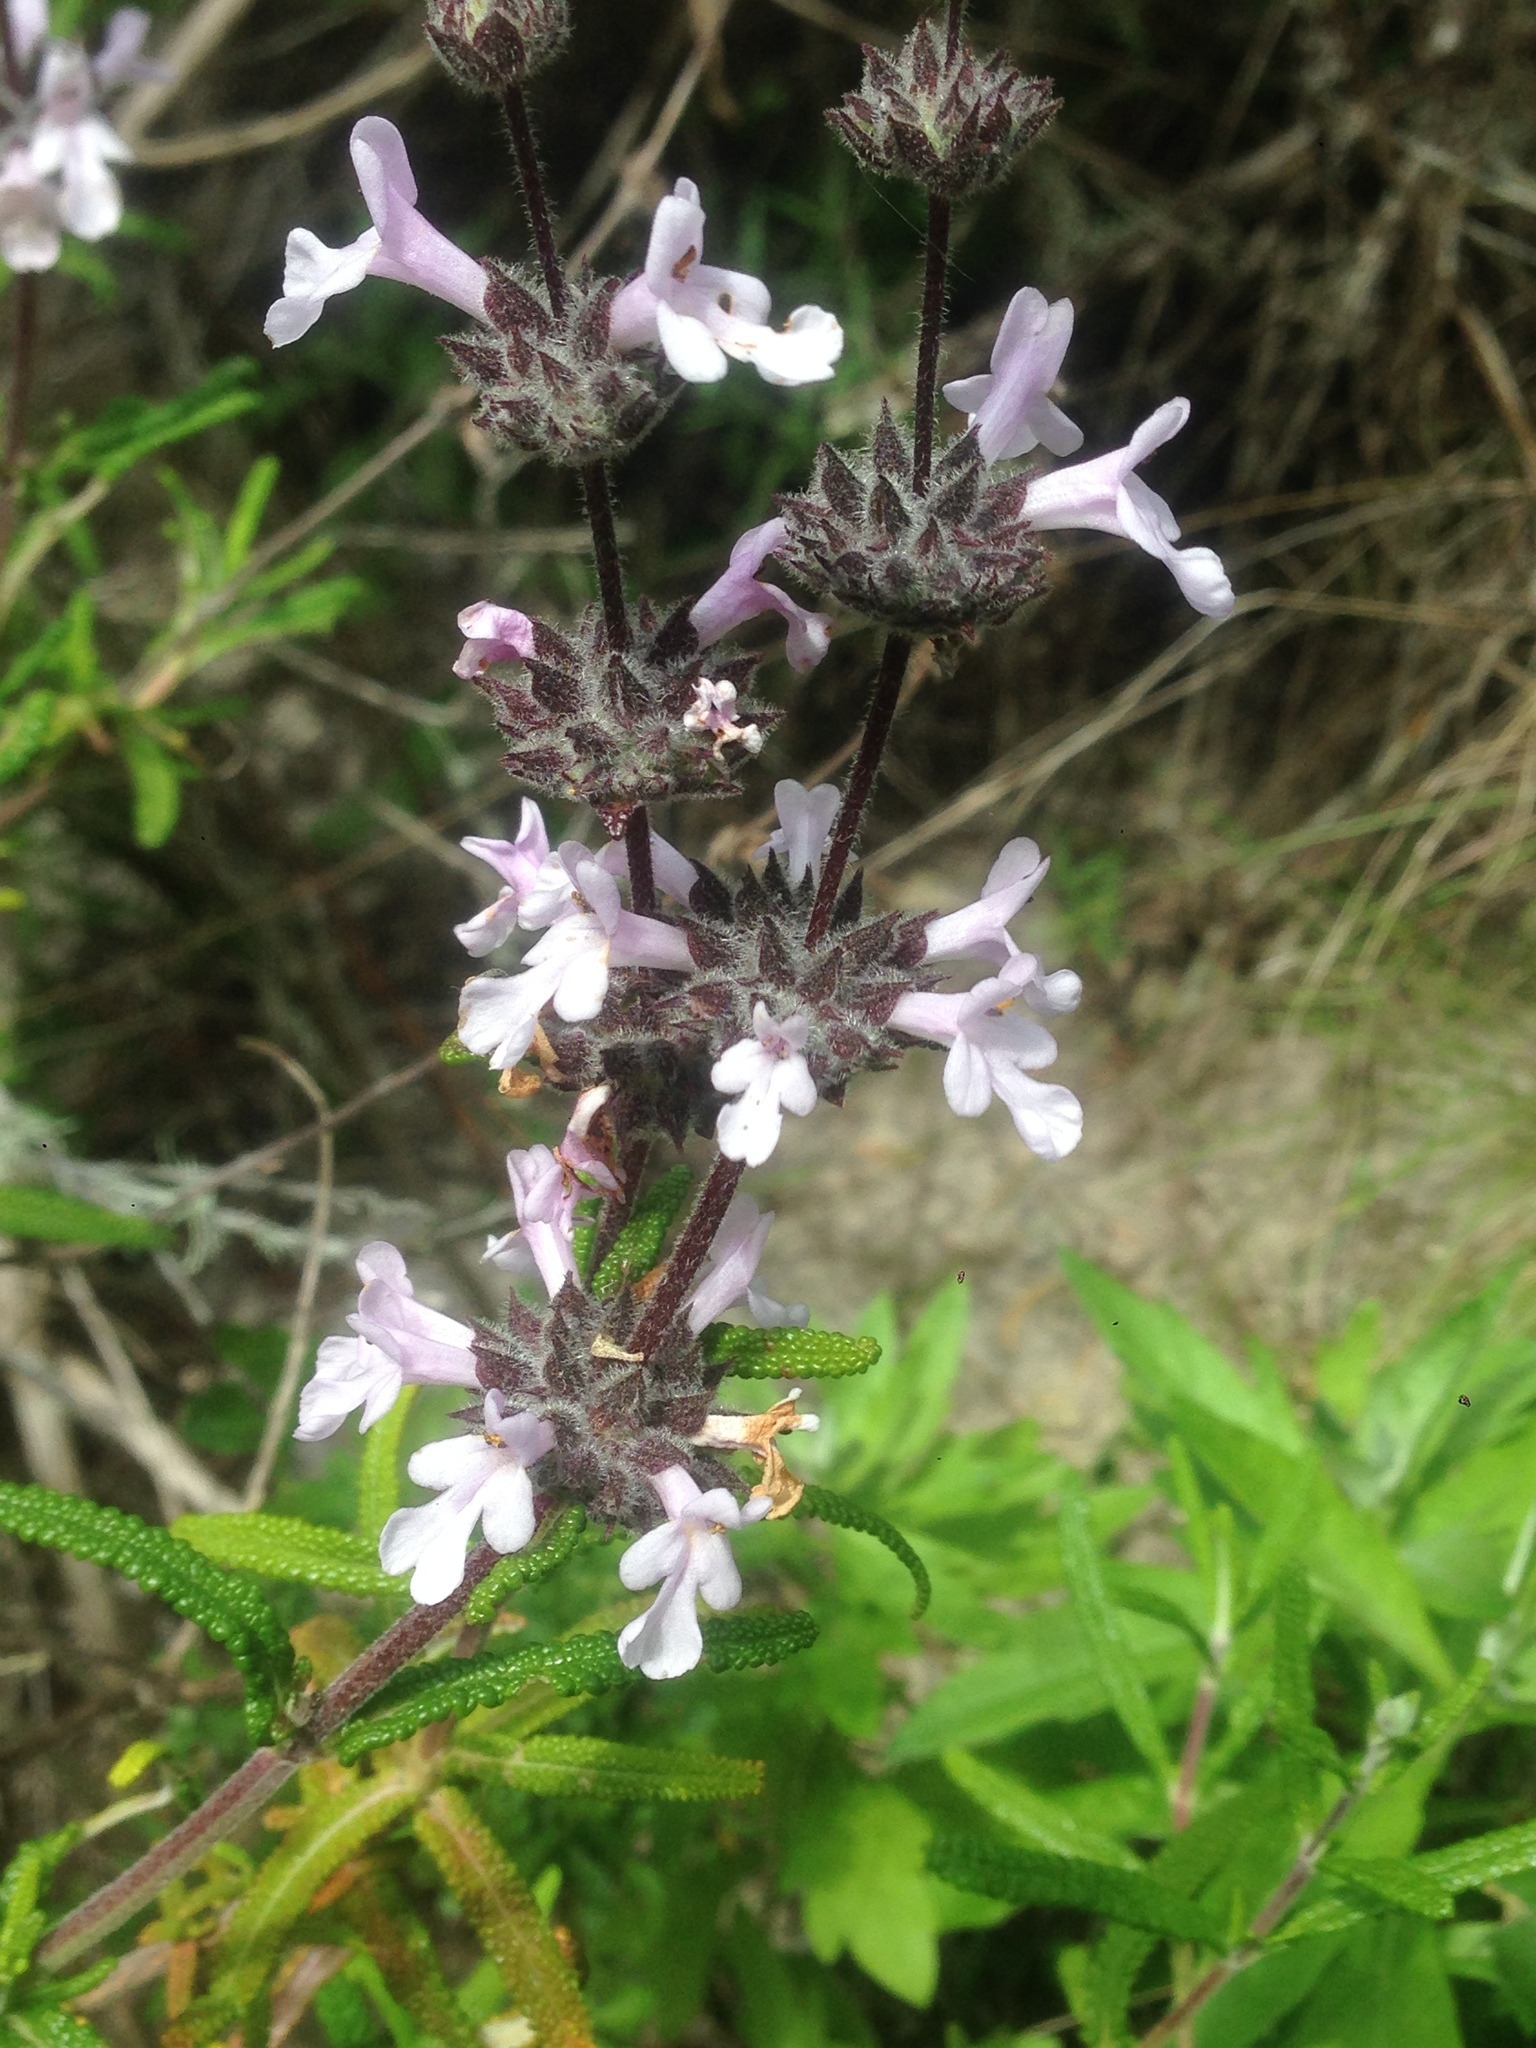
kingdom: Plantae
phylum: Tracheophyta
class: Magnoliopsida
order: Lamiales
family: Lamiaceae
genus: Salvia
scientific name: Salvia brandegeei
